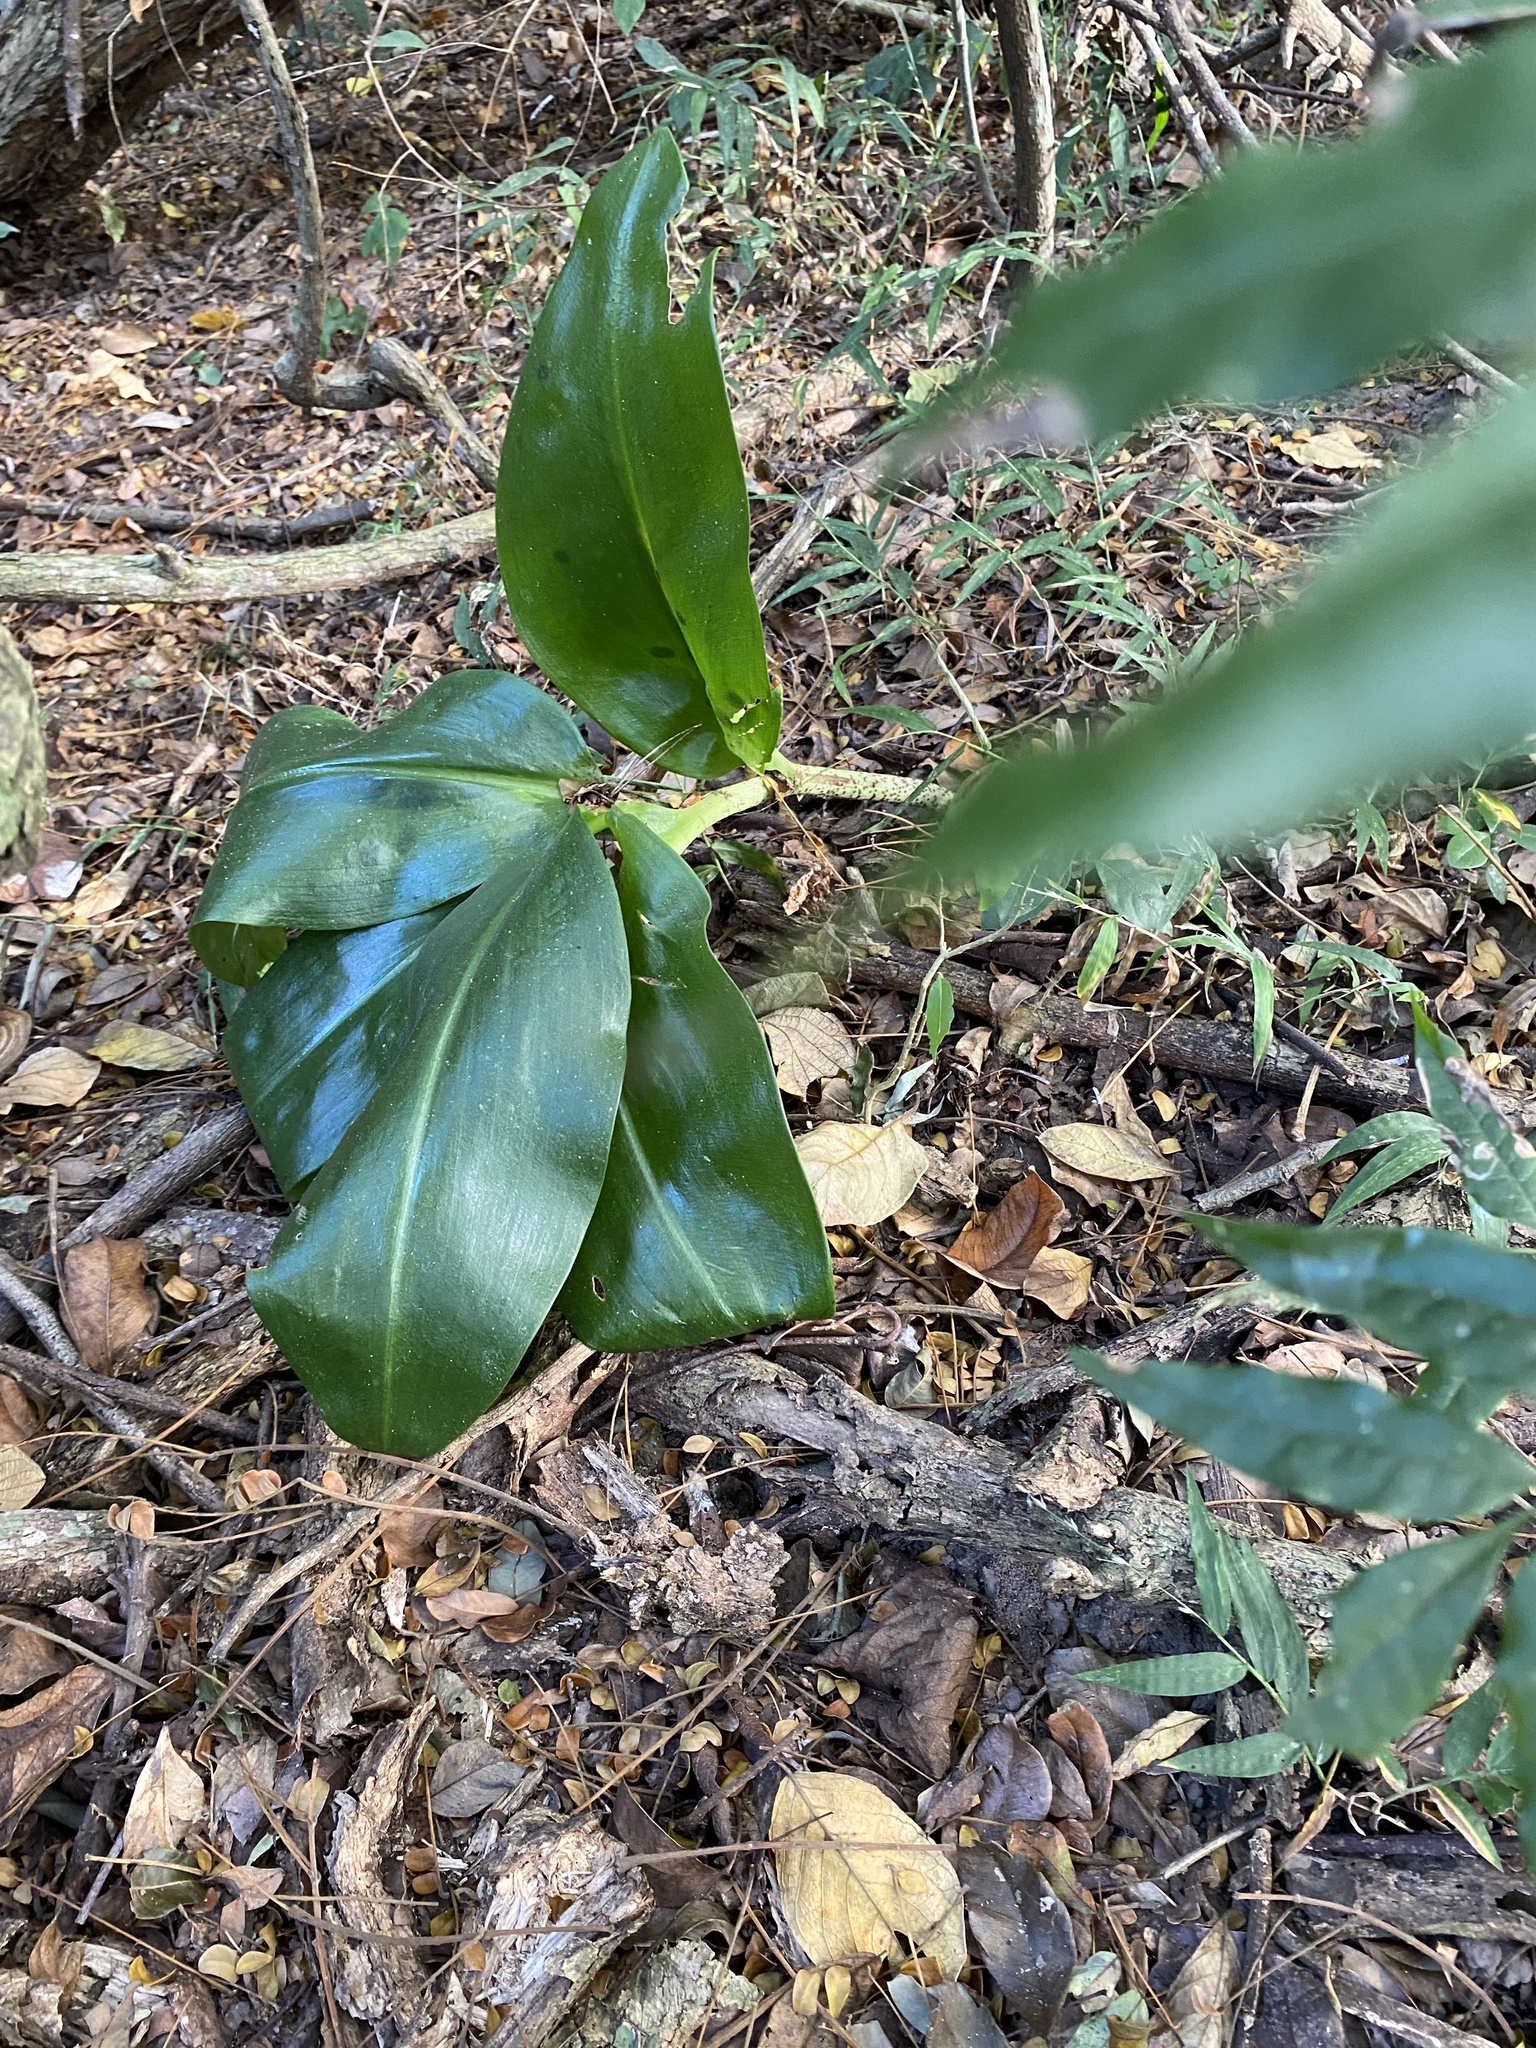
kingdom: Plantae
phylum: Tracheophyta
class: Liliopsida
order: Asparagales
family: Amaryllidaceae
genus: Scadoxus
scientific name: Scadoxus puniceus
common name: Royal-paintbrush
